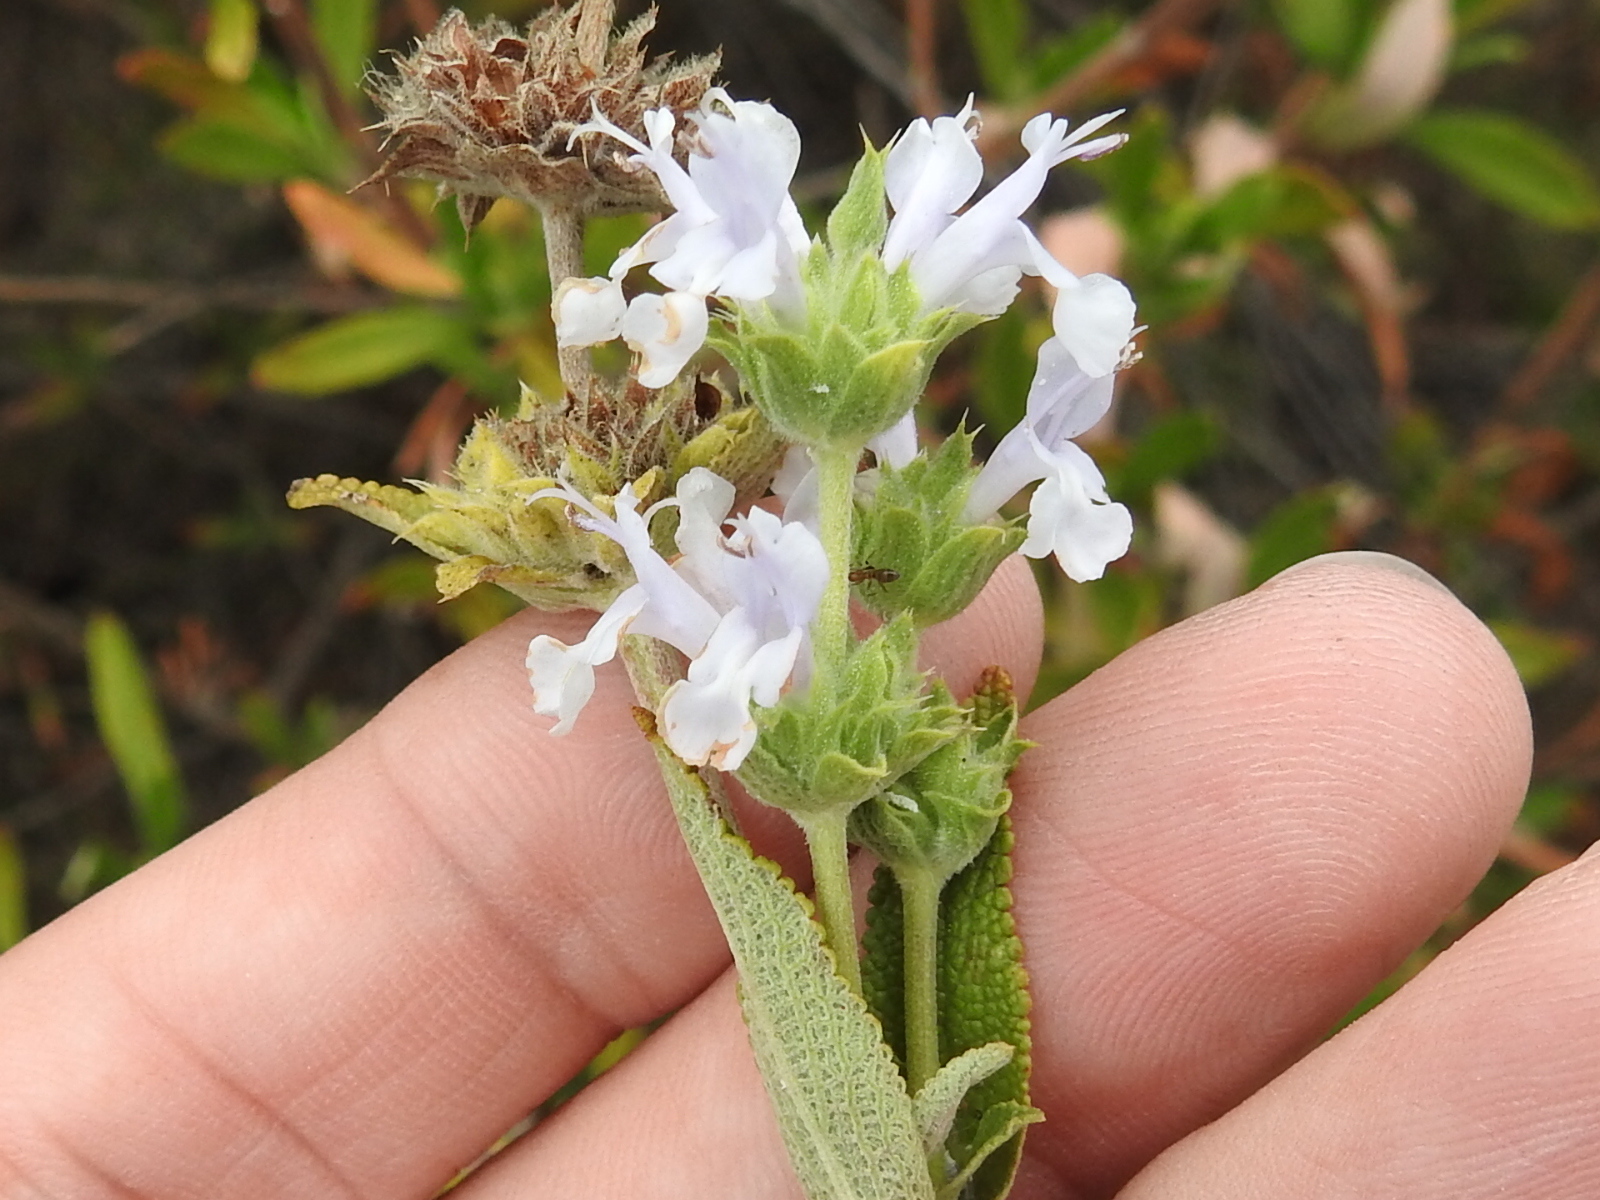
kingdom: Plantae
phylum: Tracheophyta
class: Magnoliopsida
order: Lamiales
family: Lamiaceae
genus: Salvia
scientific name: Salvia mellifera
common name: Black sage
